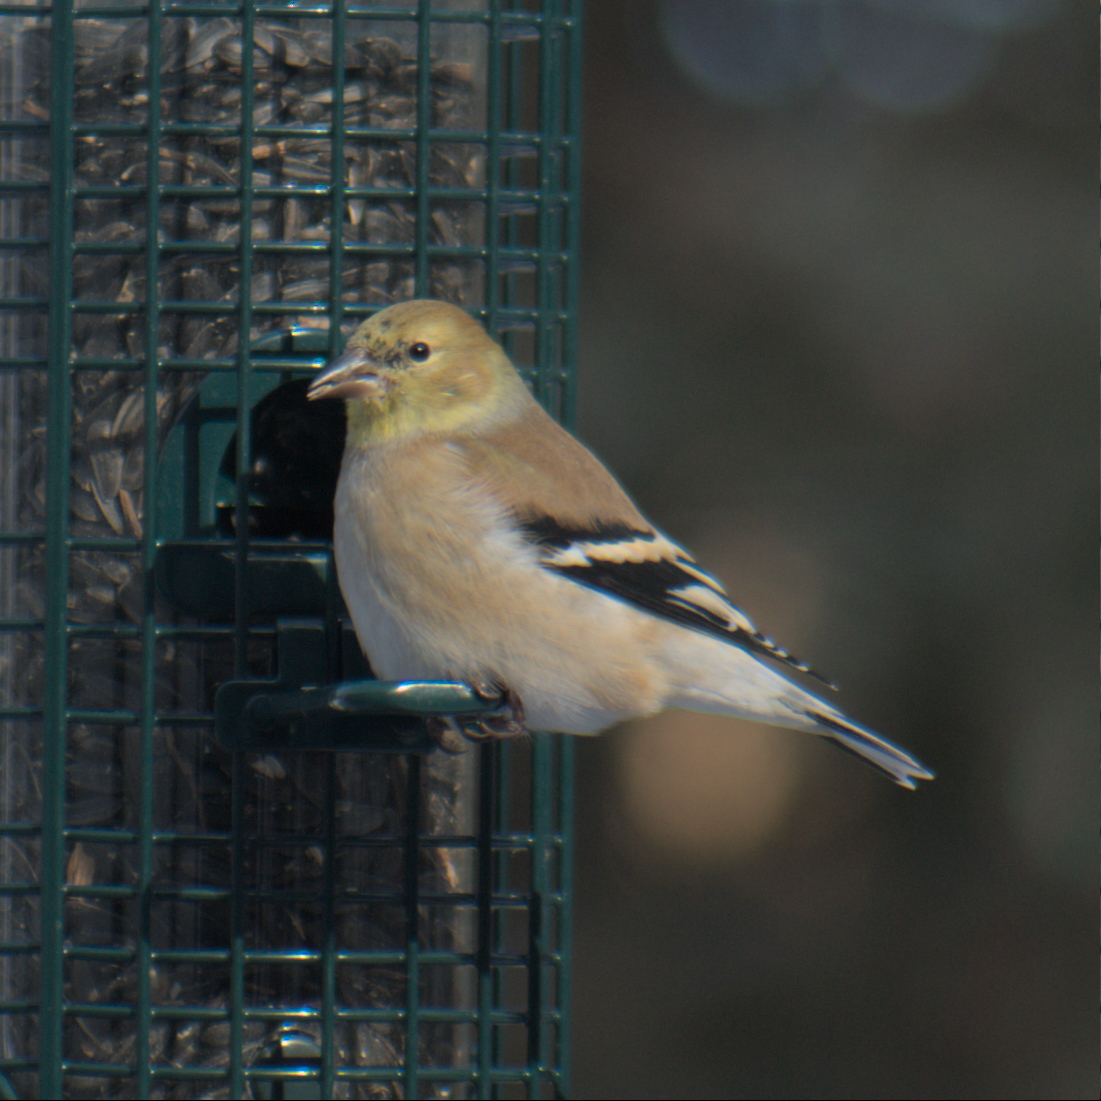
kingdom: Animalia
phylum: Chordata
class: Aves
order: Passeriformes
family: Fringillidae
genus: Spinus
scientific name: Spinus tristis
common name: American goldfinch
